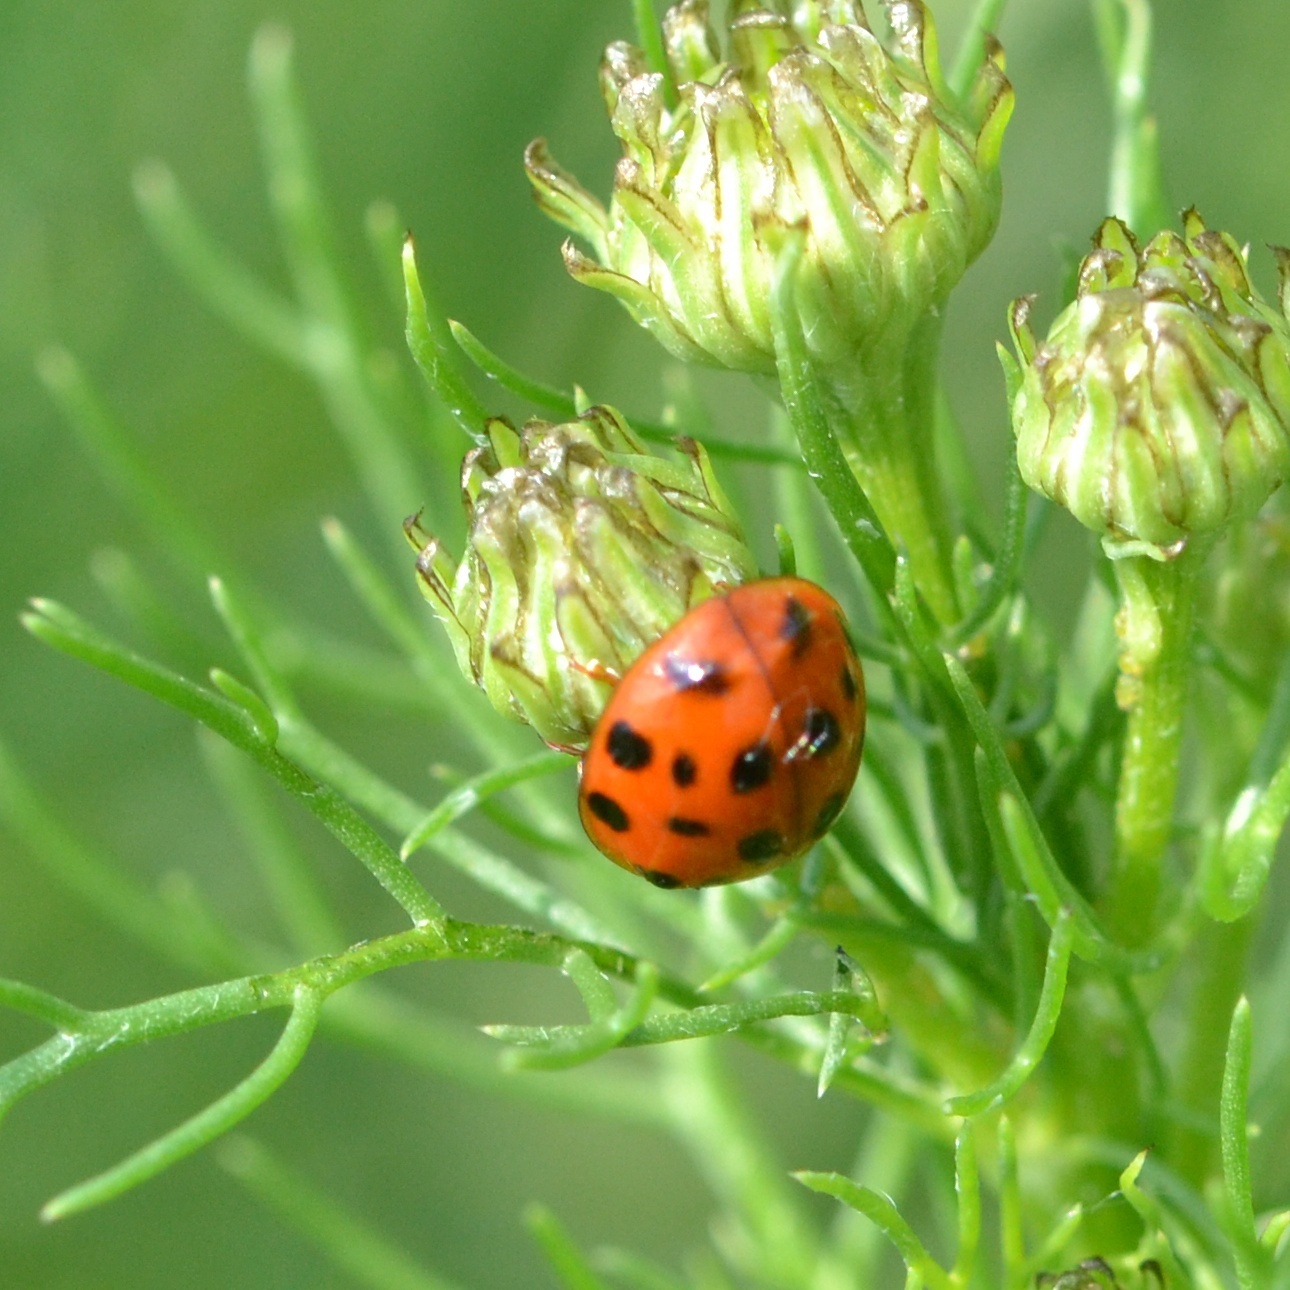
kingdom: Animalia
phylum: Arthropoda
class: Insecta
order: Coleoptera
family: Coccinellidae
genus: Harmonia
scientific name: Harmonia axyridis
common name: Harlequin ladybird
